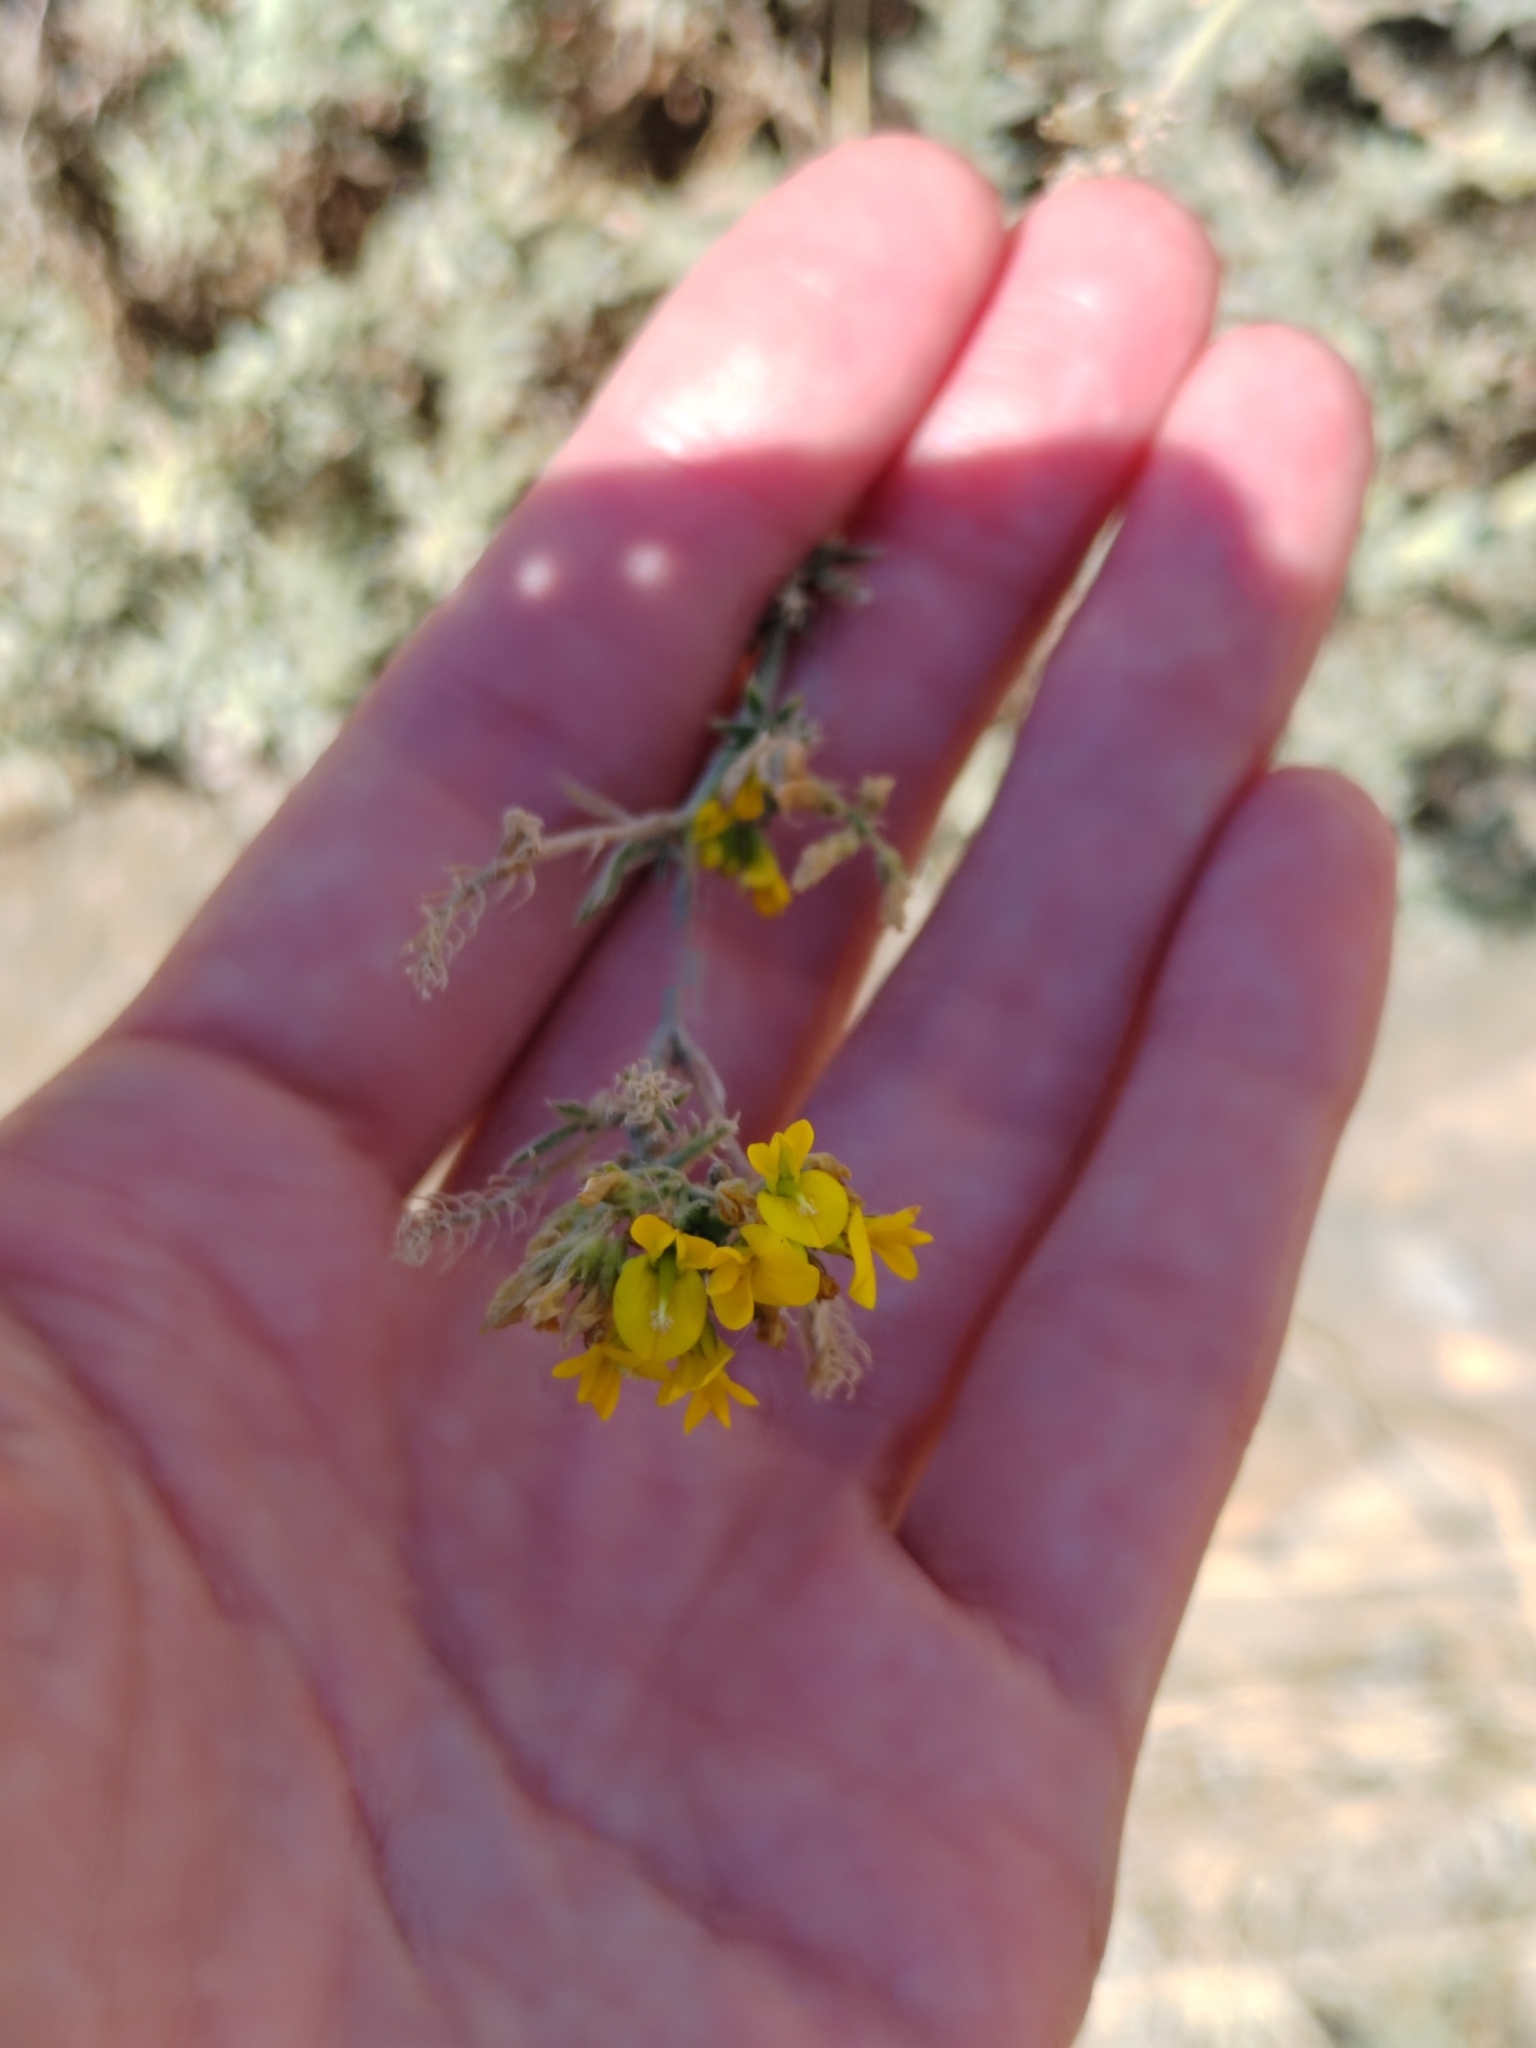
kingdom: Plantae
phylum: Tracheophyta
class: Magnoliopsida
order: Fabales
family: Fabaceae
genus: Medicago
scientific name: Medicago falcata
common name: Sickle medick
